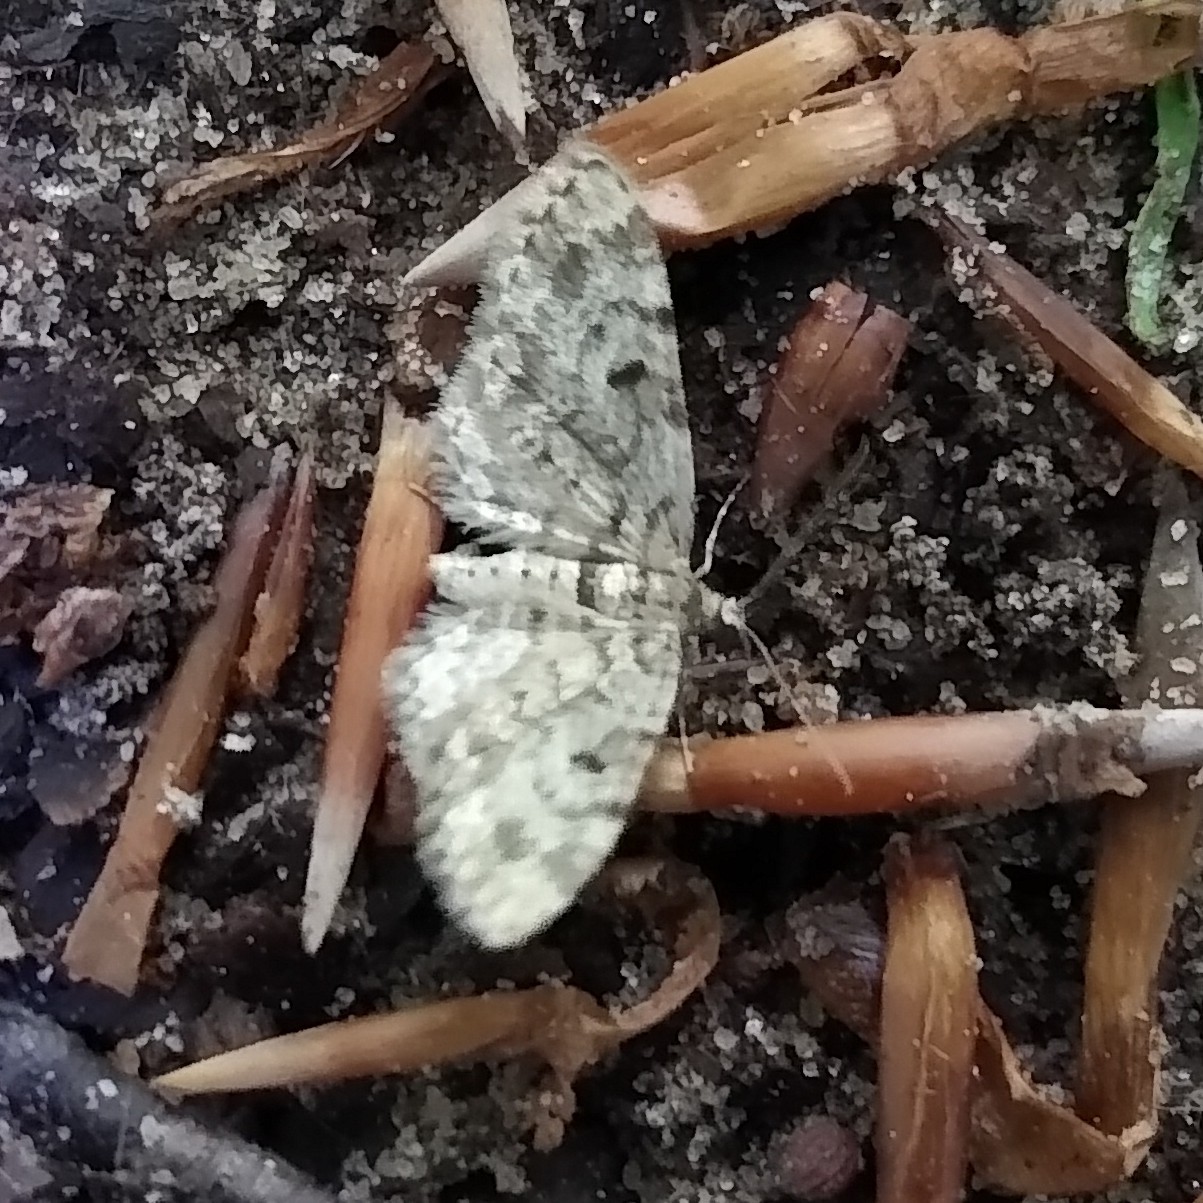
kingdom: Animalia
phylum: Arthropoda
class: Insecta
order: Lepidoptera
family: Geometridae
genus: Eupithecia
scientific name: Eupithecia tantillaria
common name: Dwarf pug
